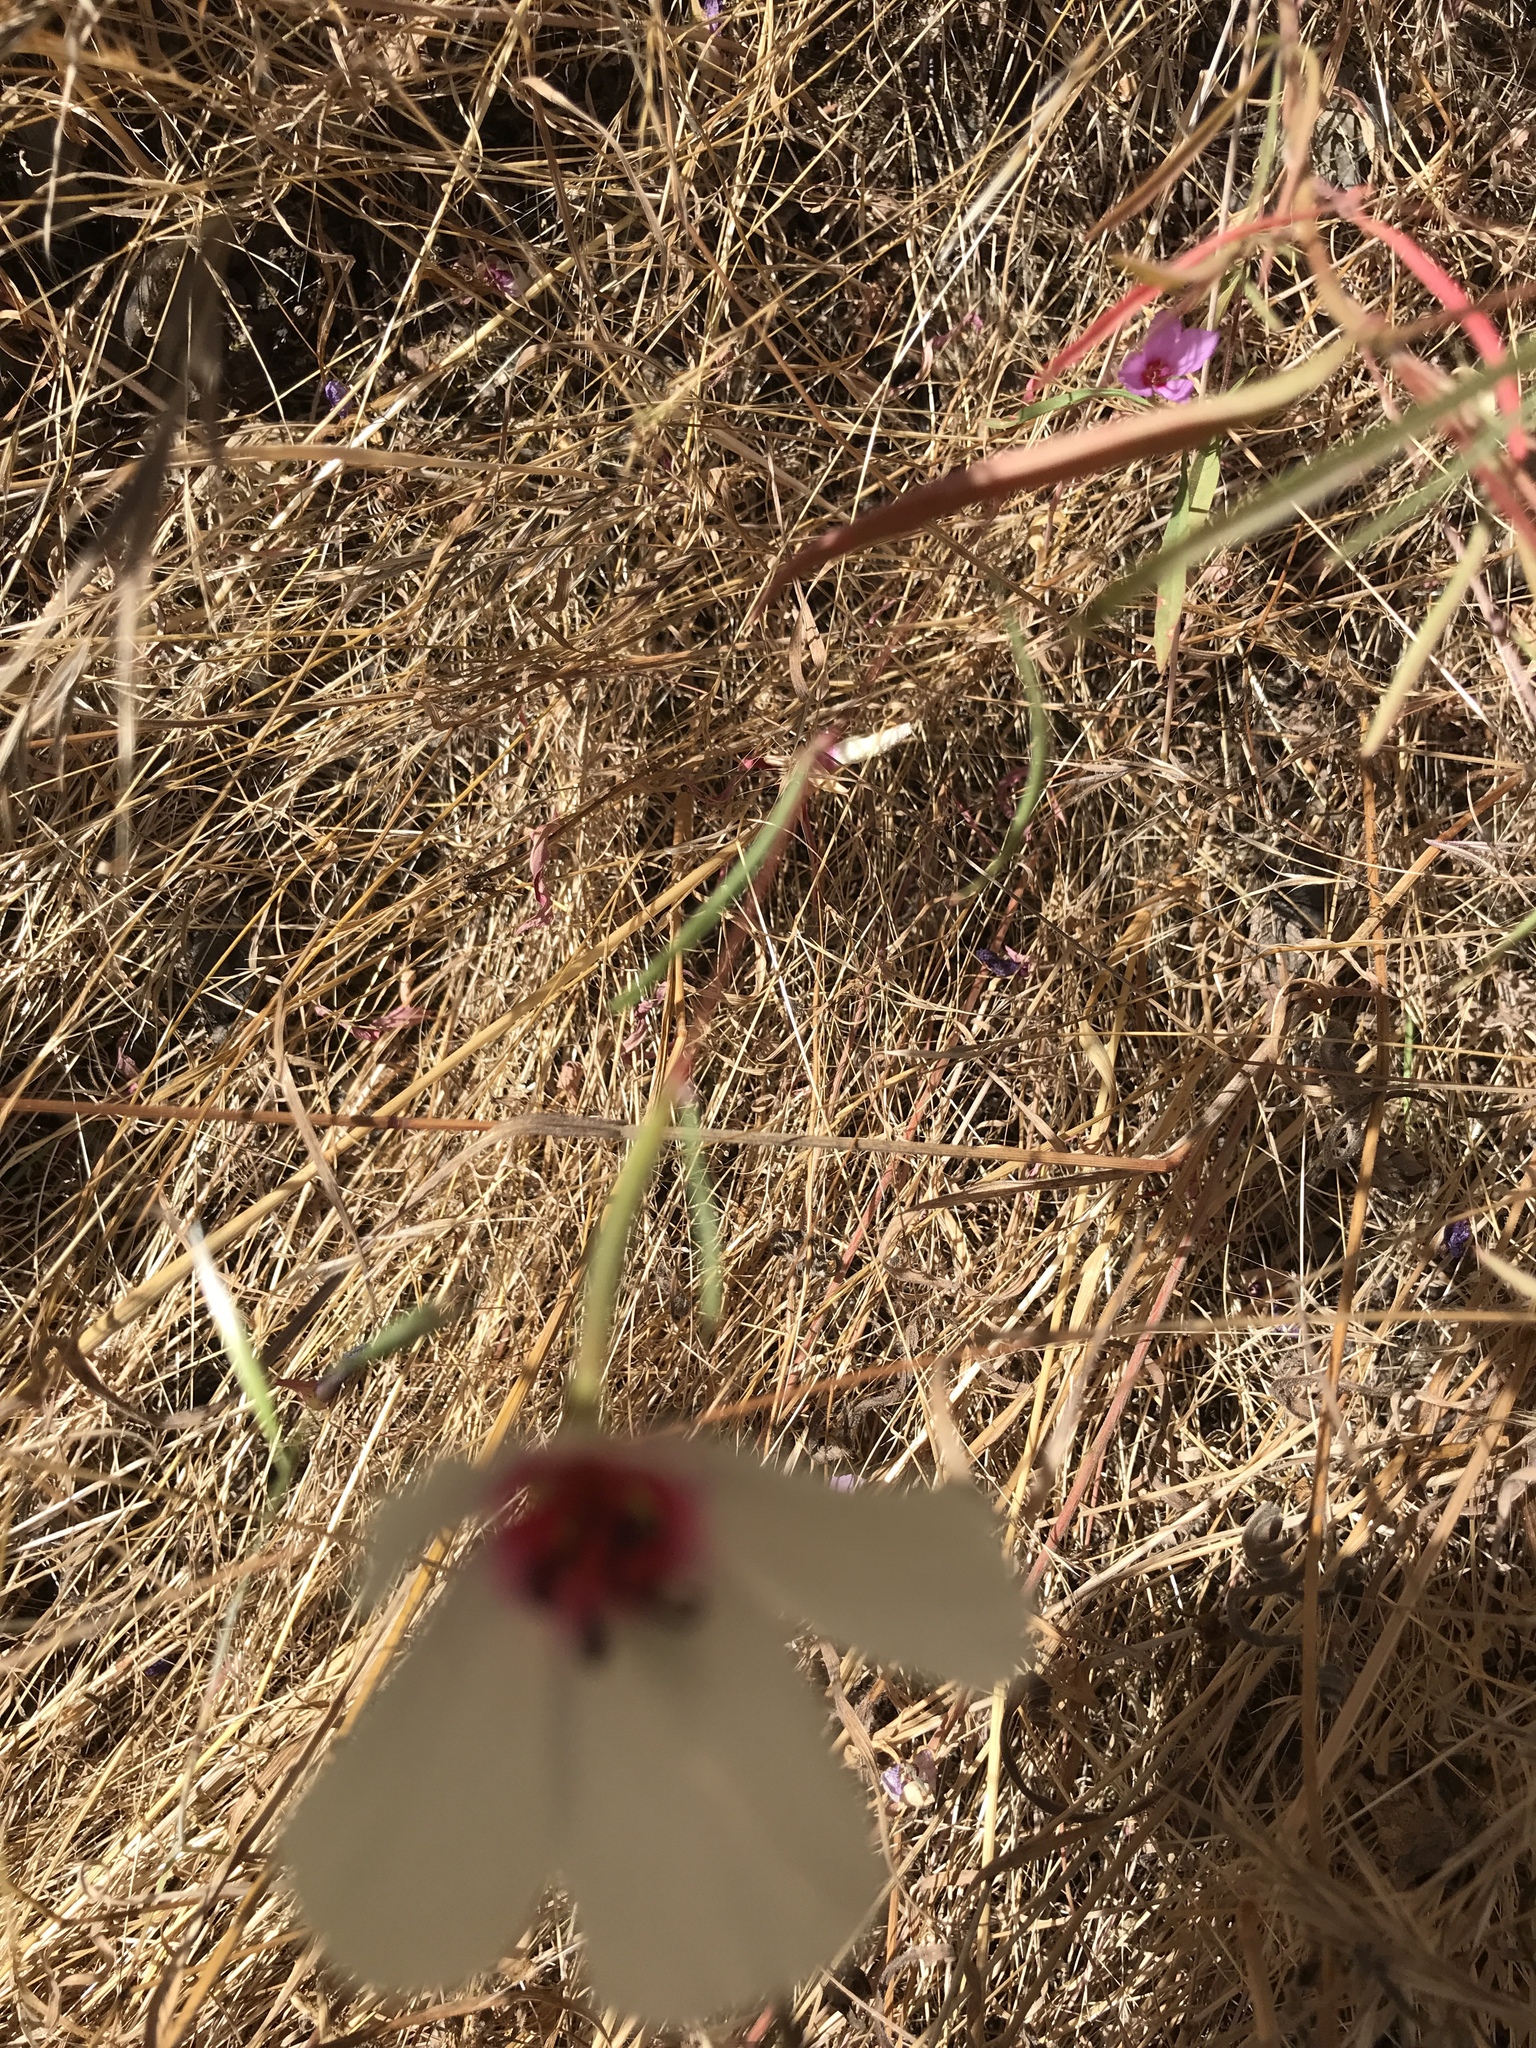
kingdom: Plantae
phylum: Tracheophyta
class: Magnoliopsida
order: Myrtales
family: Onagraceae
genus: Clarkia
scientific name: Clarkia rubicunda
